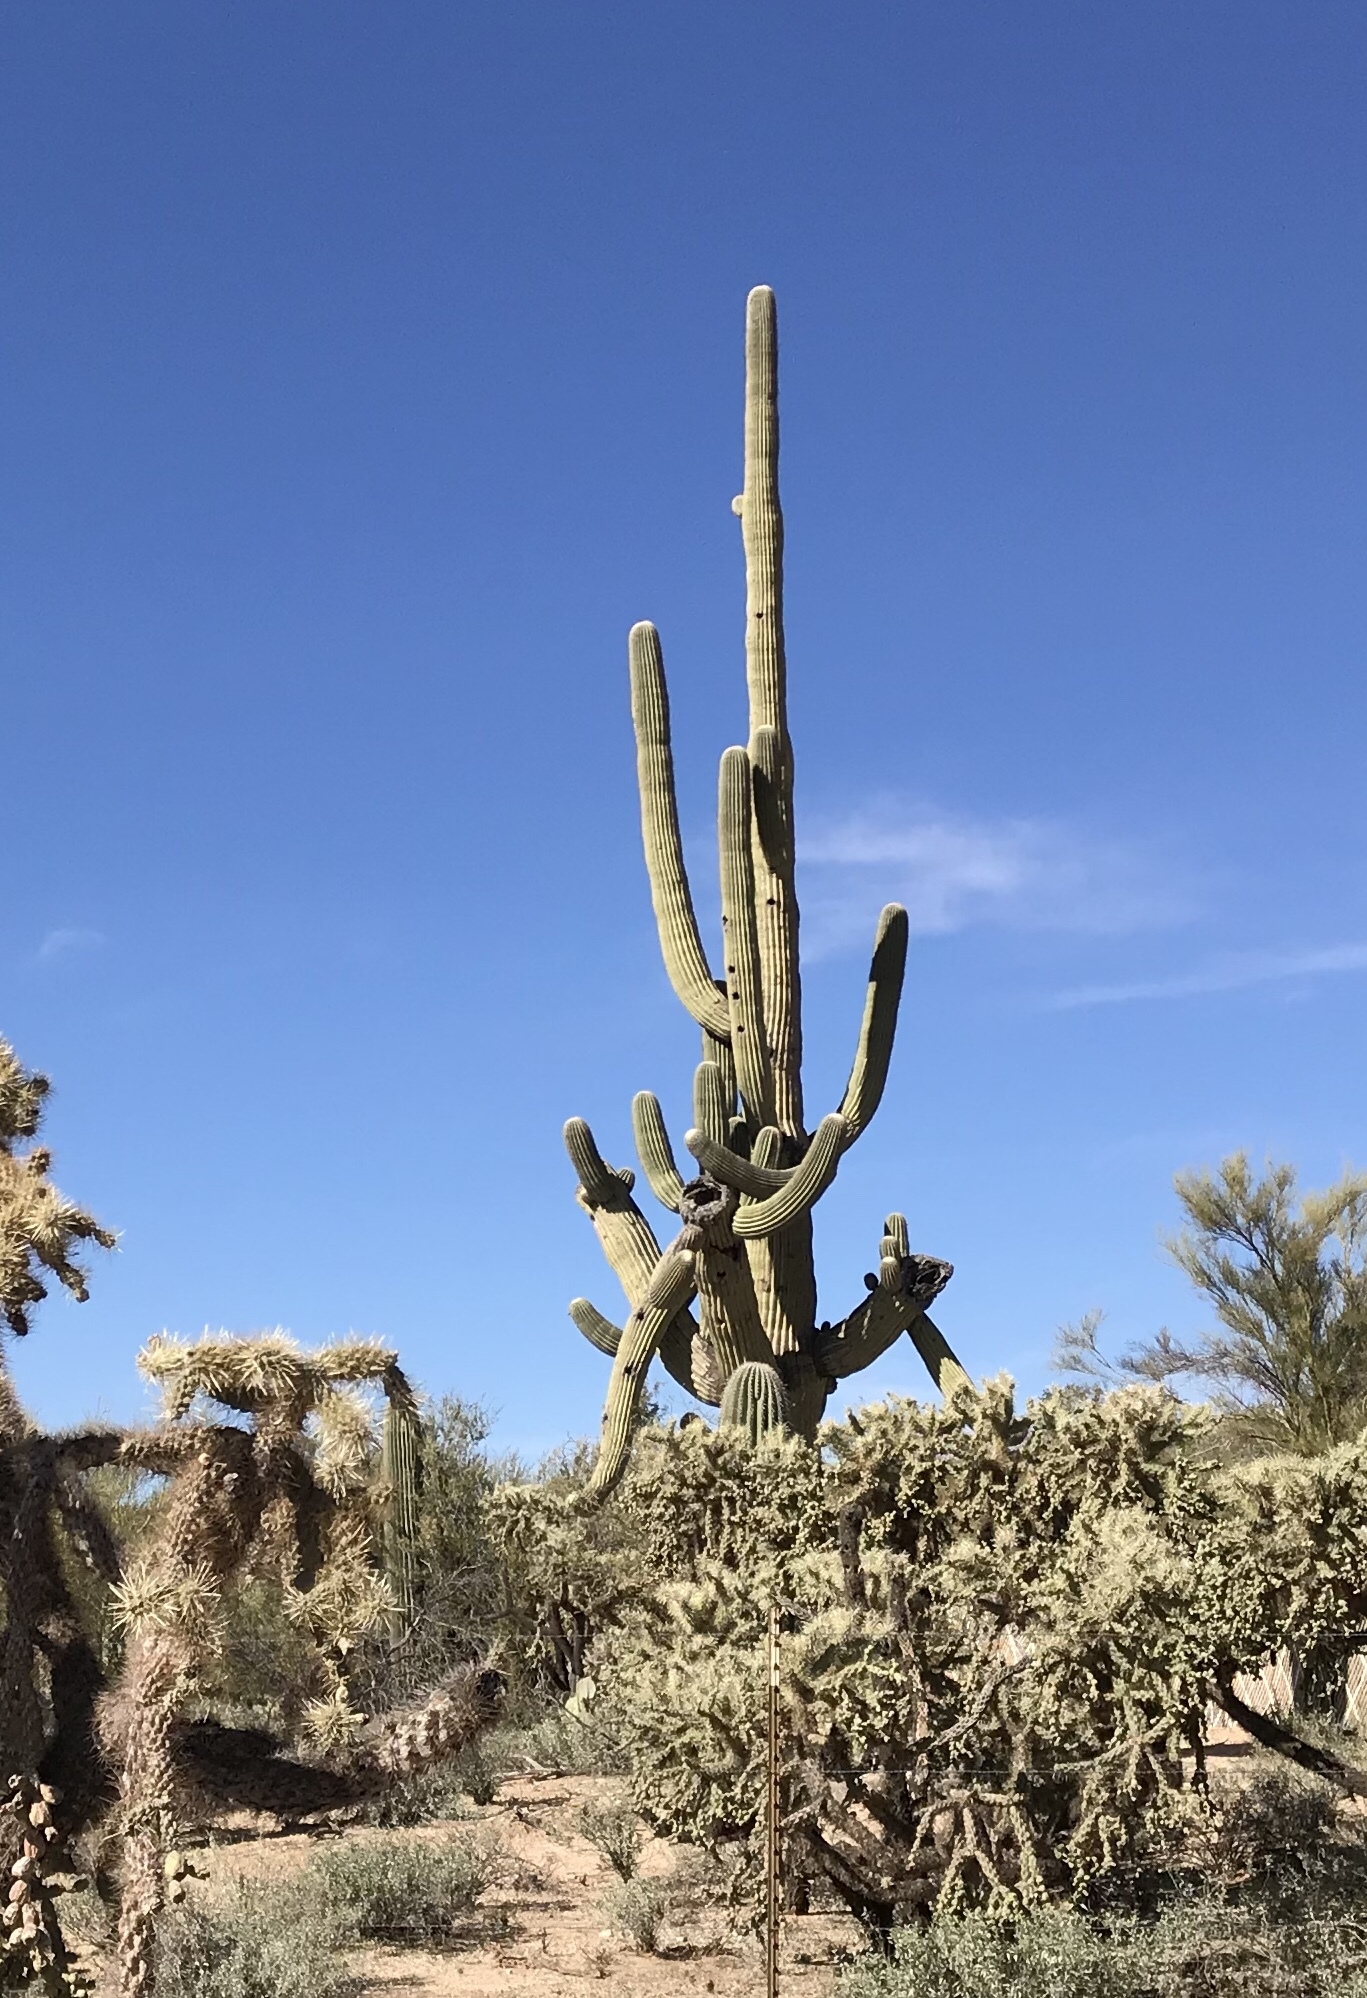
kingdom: Plantae
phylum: Tracheophyta
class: Magnoliopsida
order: Caryophyllales
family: Cactaceae
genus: Carnegiea
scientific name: Carnegiea gigantea
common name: Saguaro
